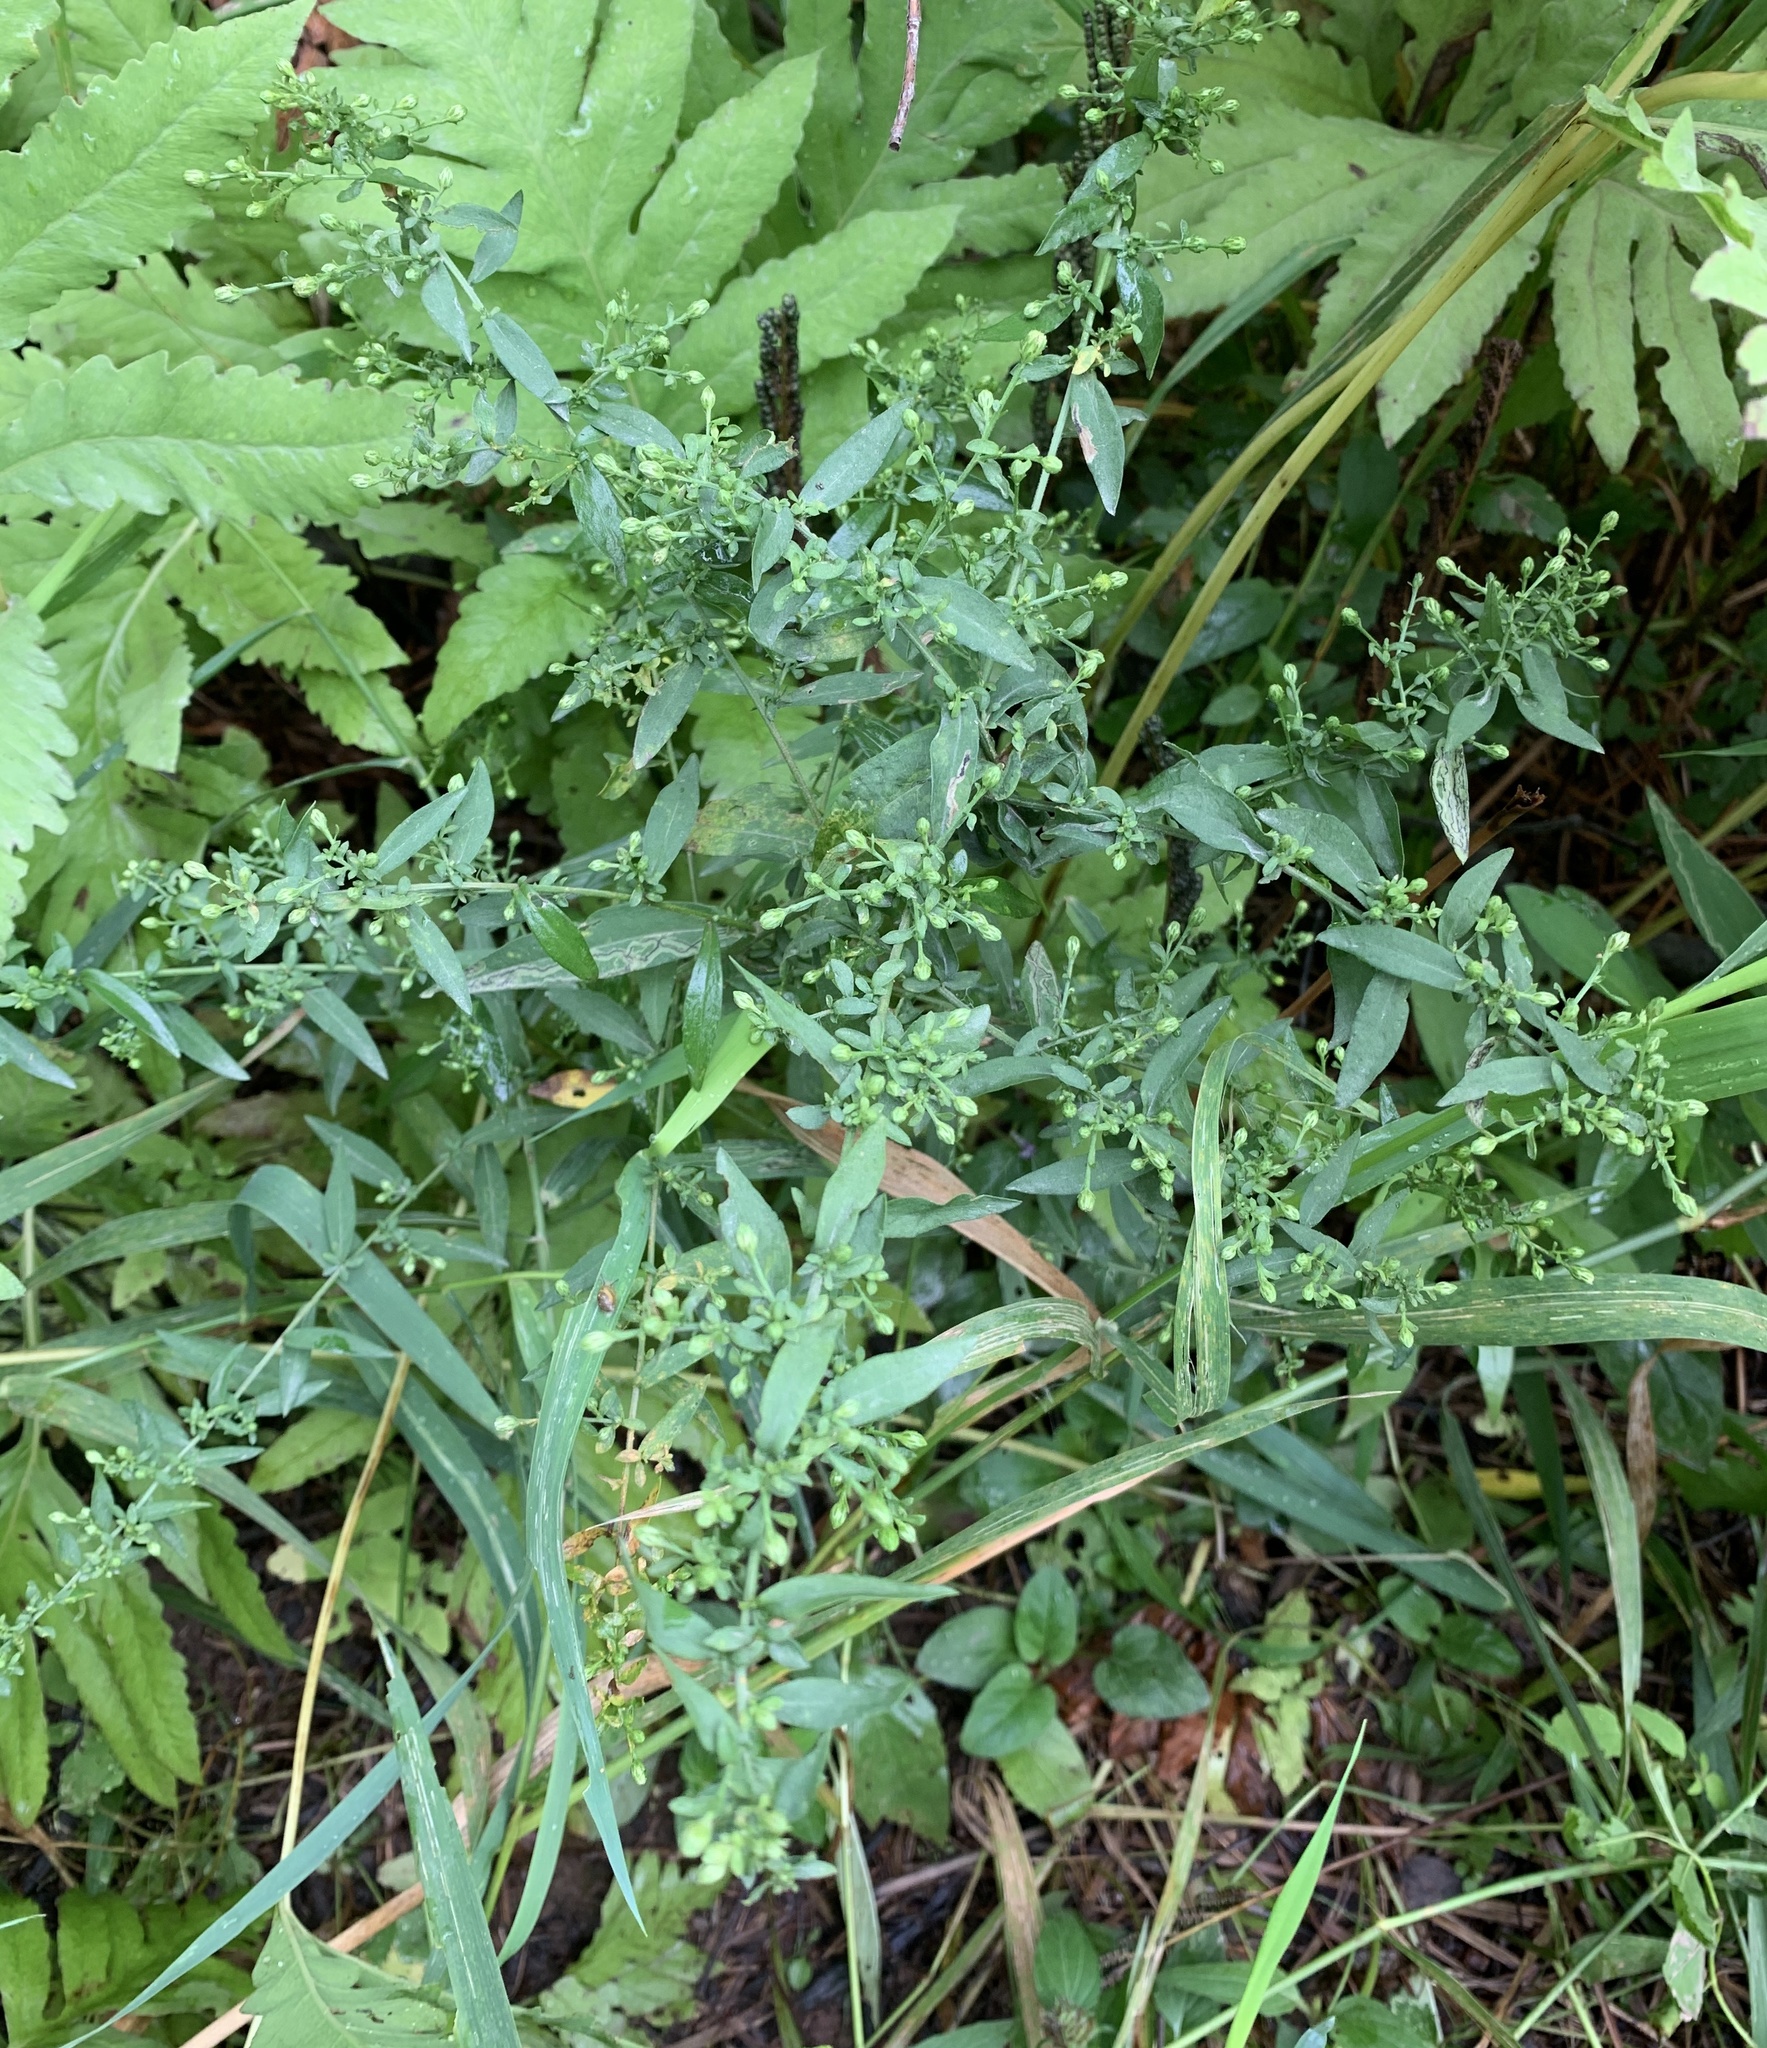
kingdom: Plantae
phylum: Tracheophyta
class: Magnoliopsida
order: Asterales
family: Asteraceae
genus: Symphyotrichum
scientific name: Symphyotrichum lateriflorum
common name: Calico aster
